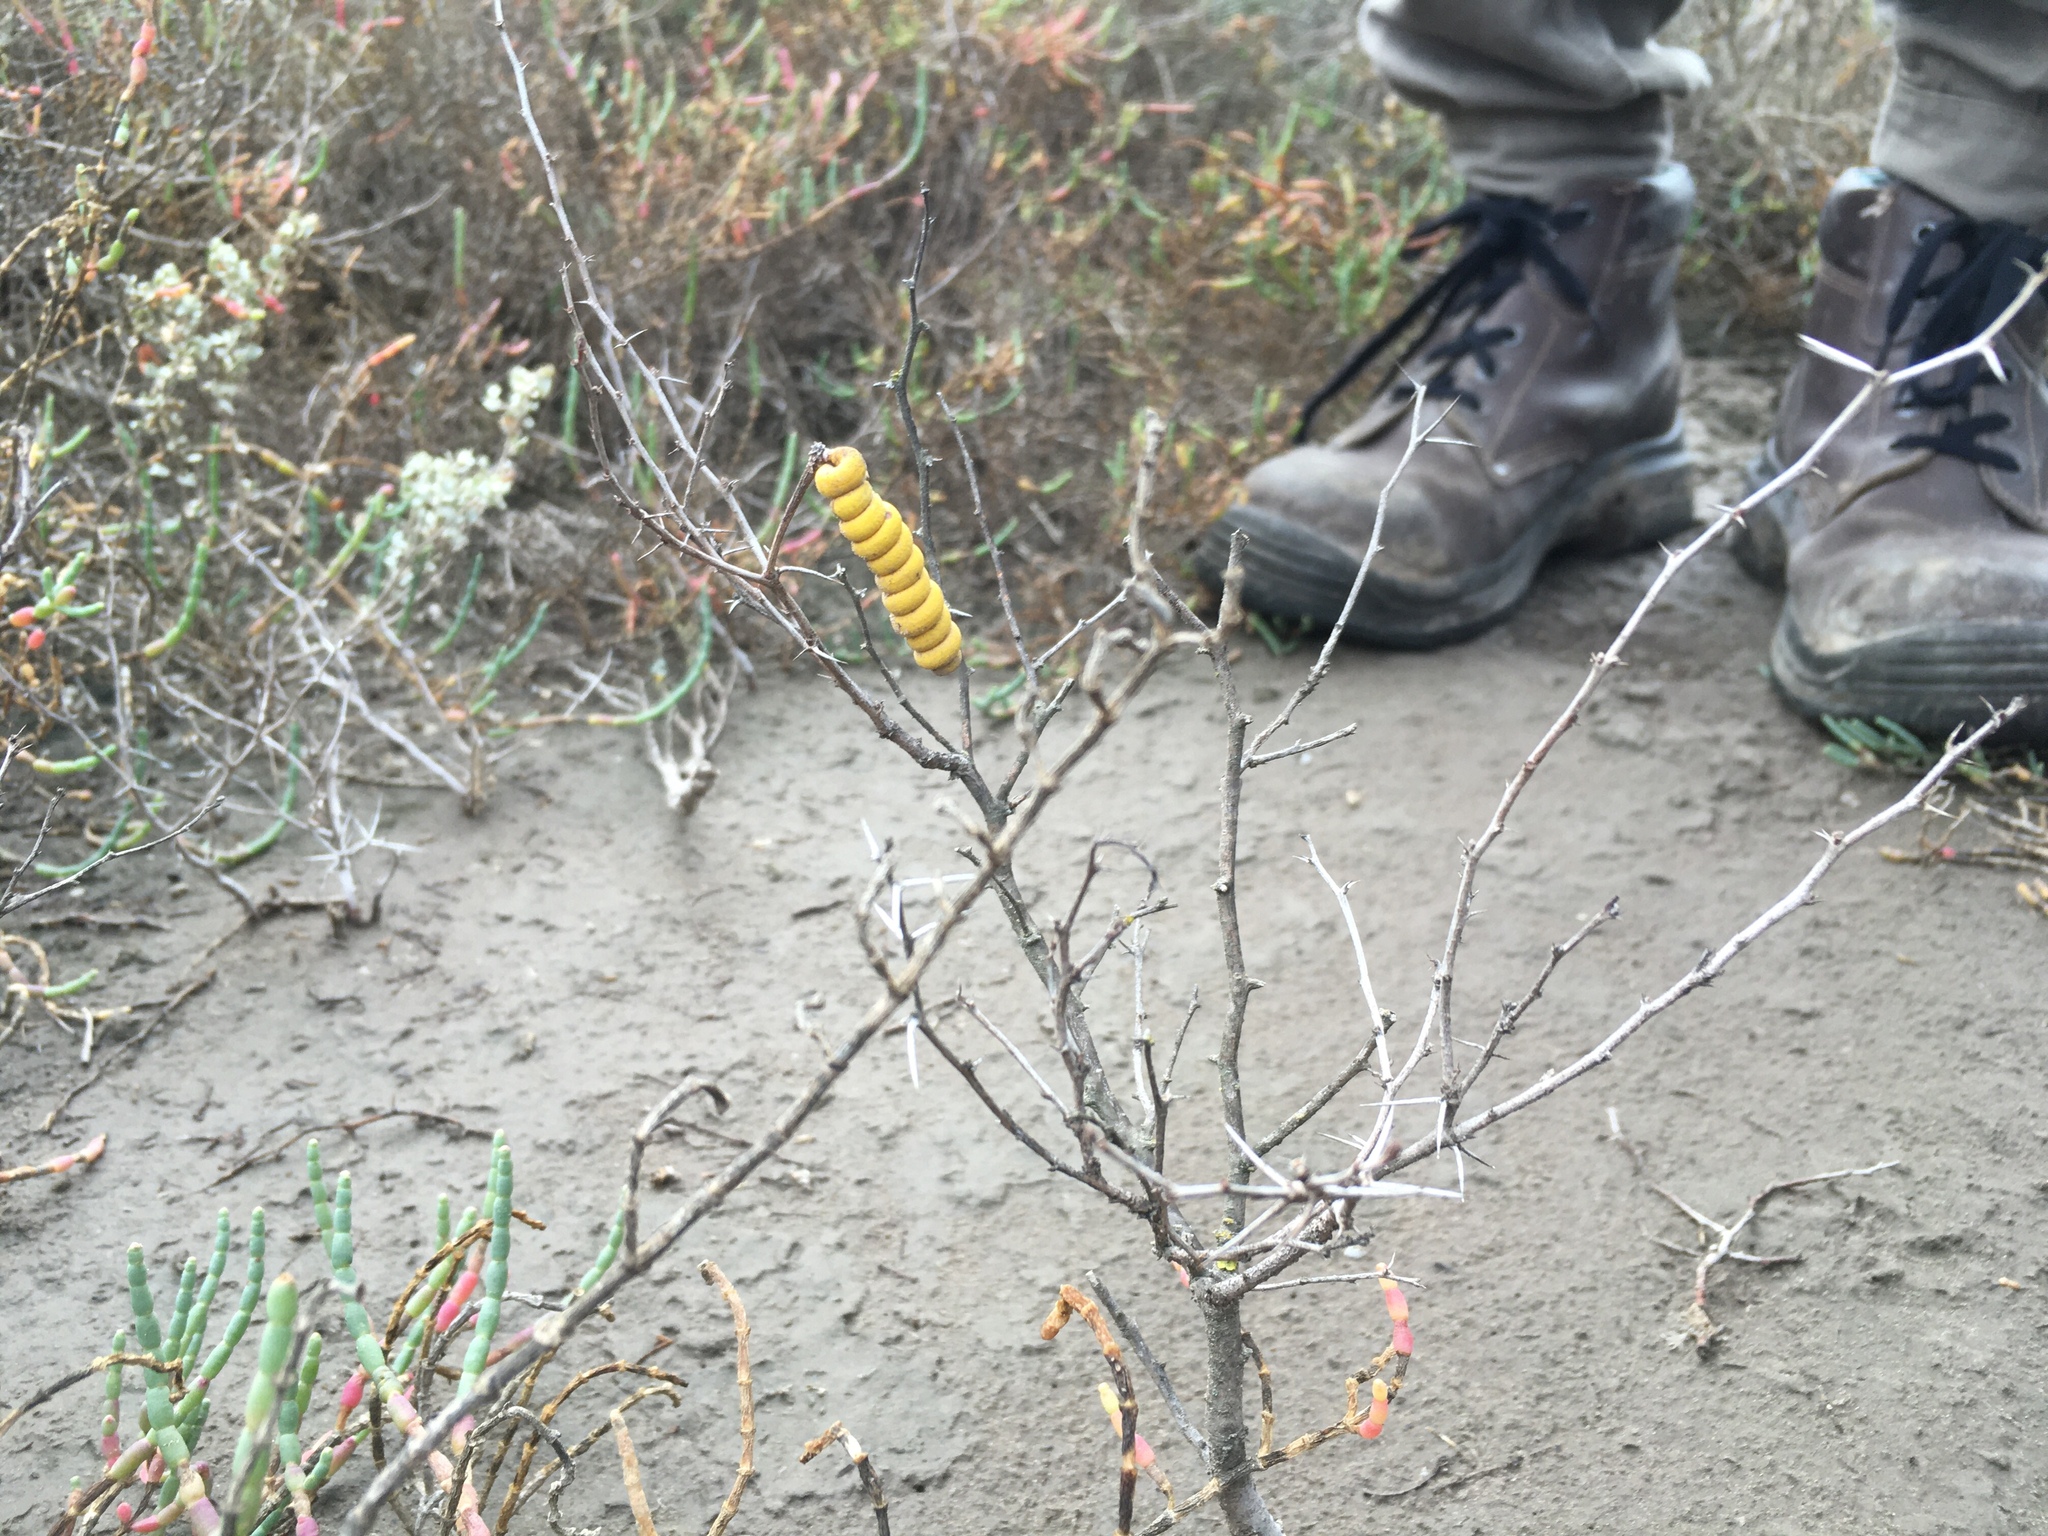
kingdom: Plantae
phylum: Tracheophyta
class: Magnoliopsida
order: Fabales
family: Fabaceae
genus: Prosopis
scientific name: Prosopis strombulifera
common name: Creeping mesquite
